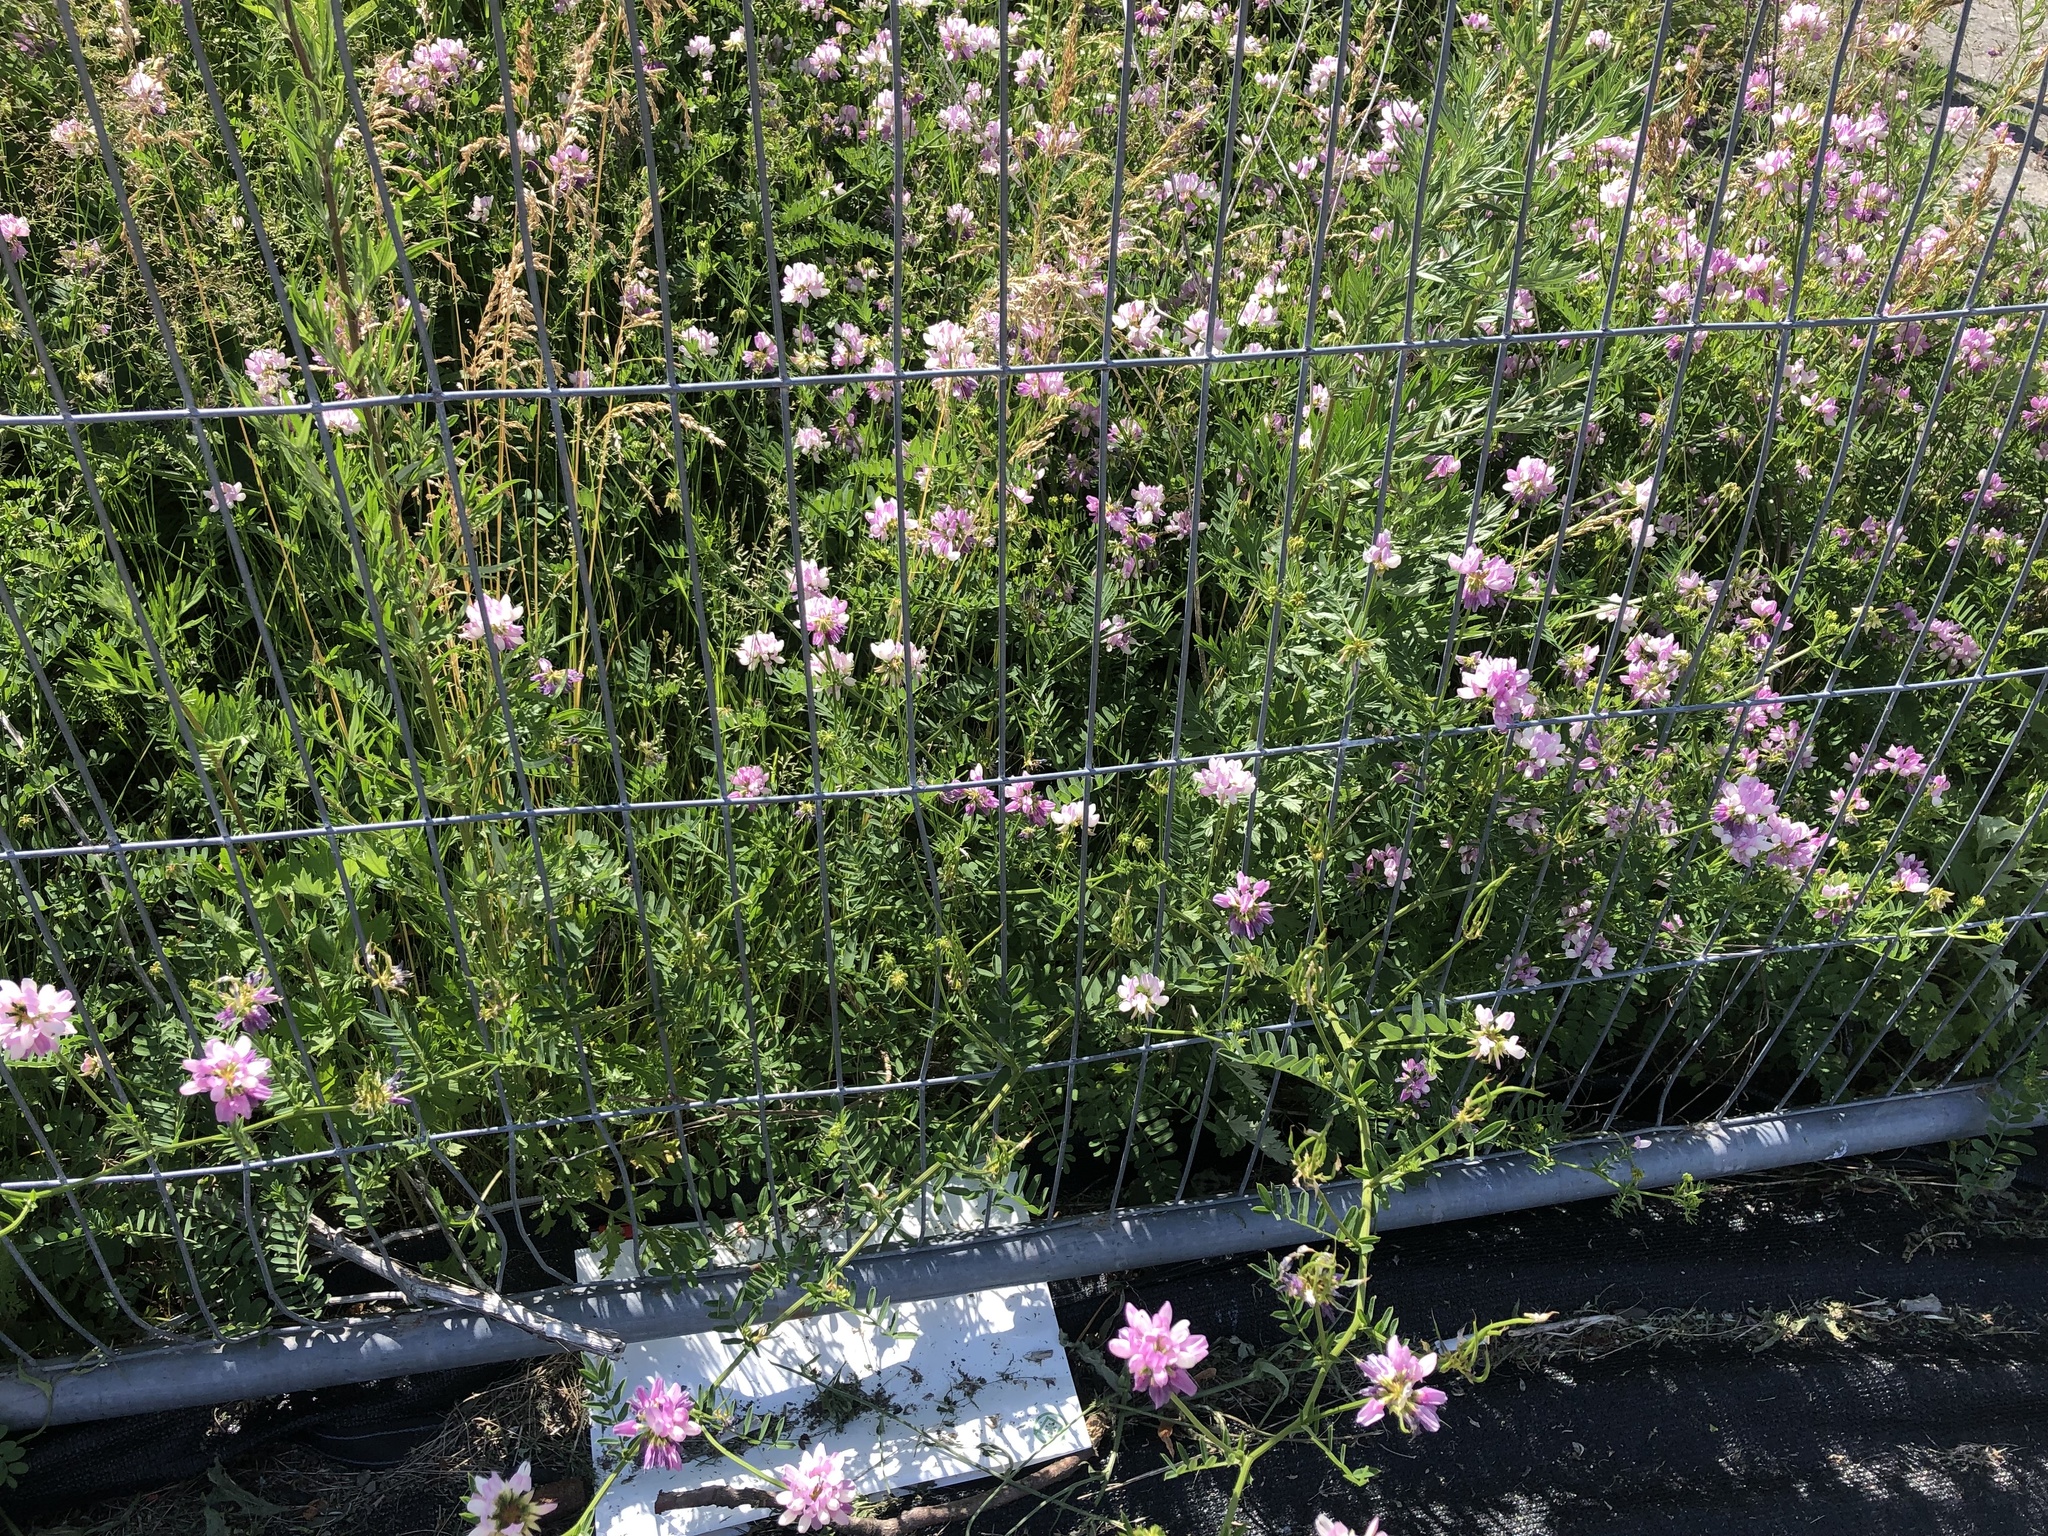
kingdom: Plantae
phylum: Tracheophyta
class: Magnoliopsida
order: Fabales
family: Fabaceae
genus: Coronilla
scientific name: Coronilla varia
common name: Crownvetch
